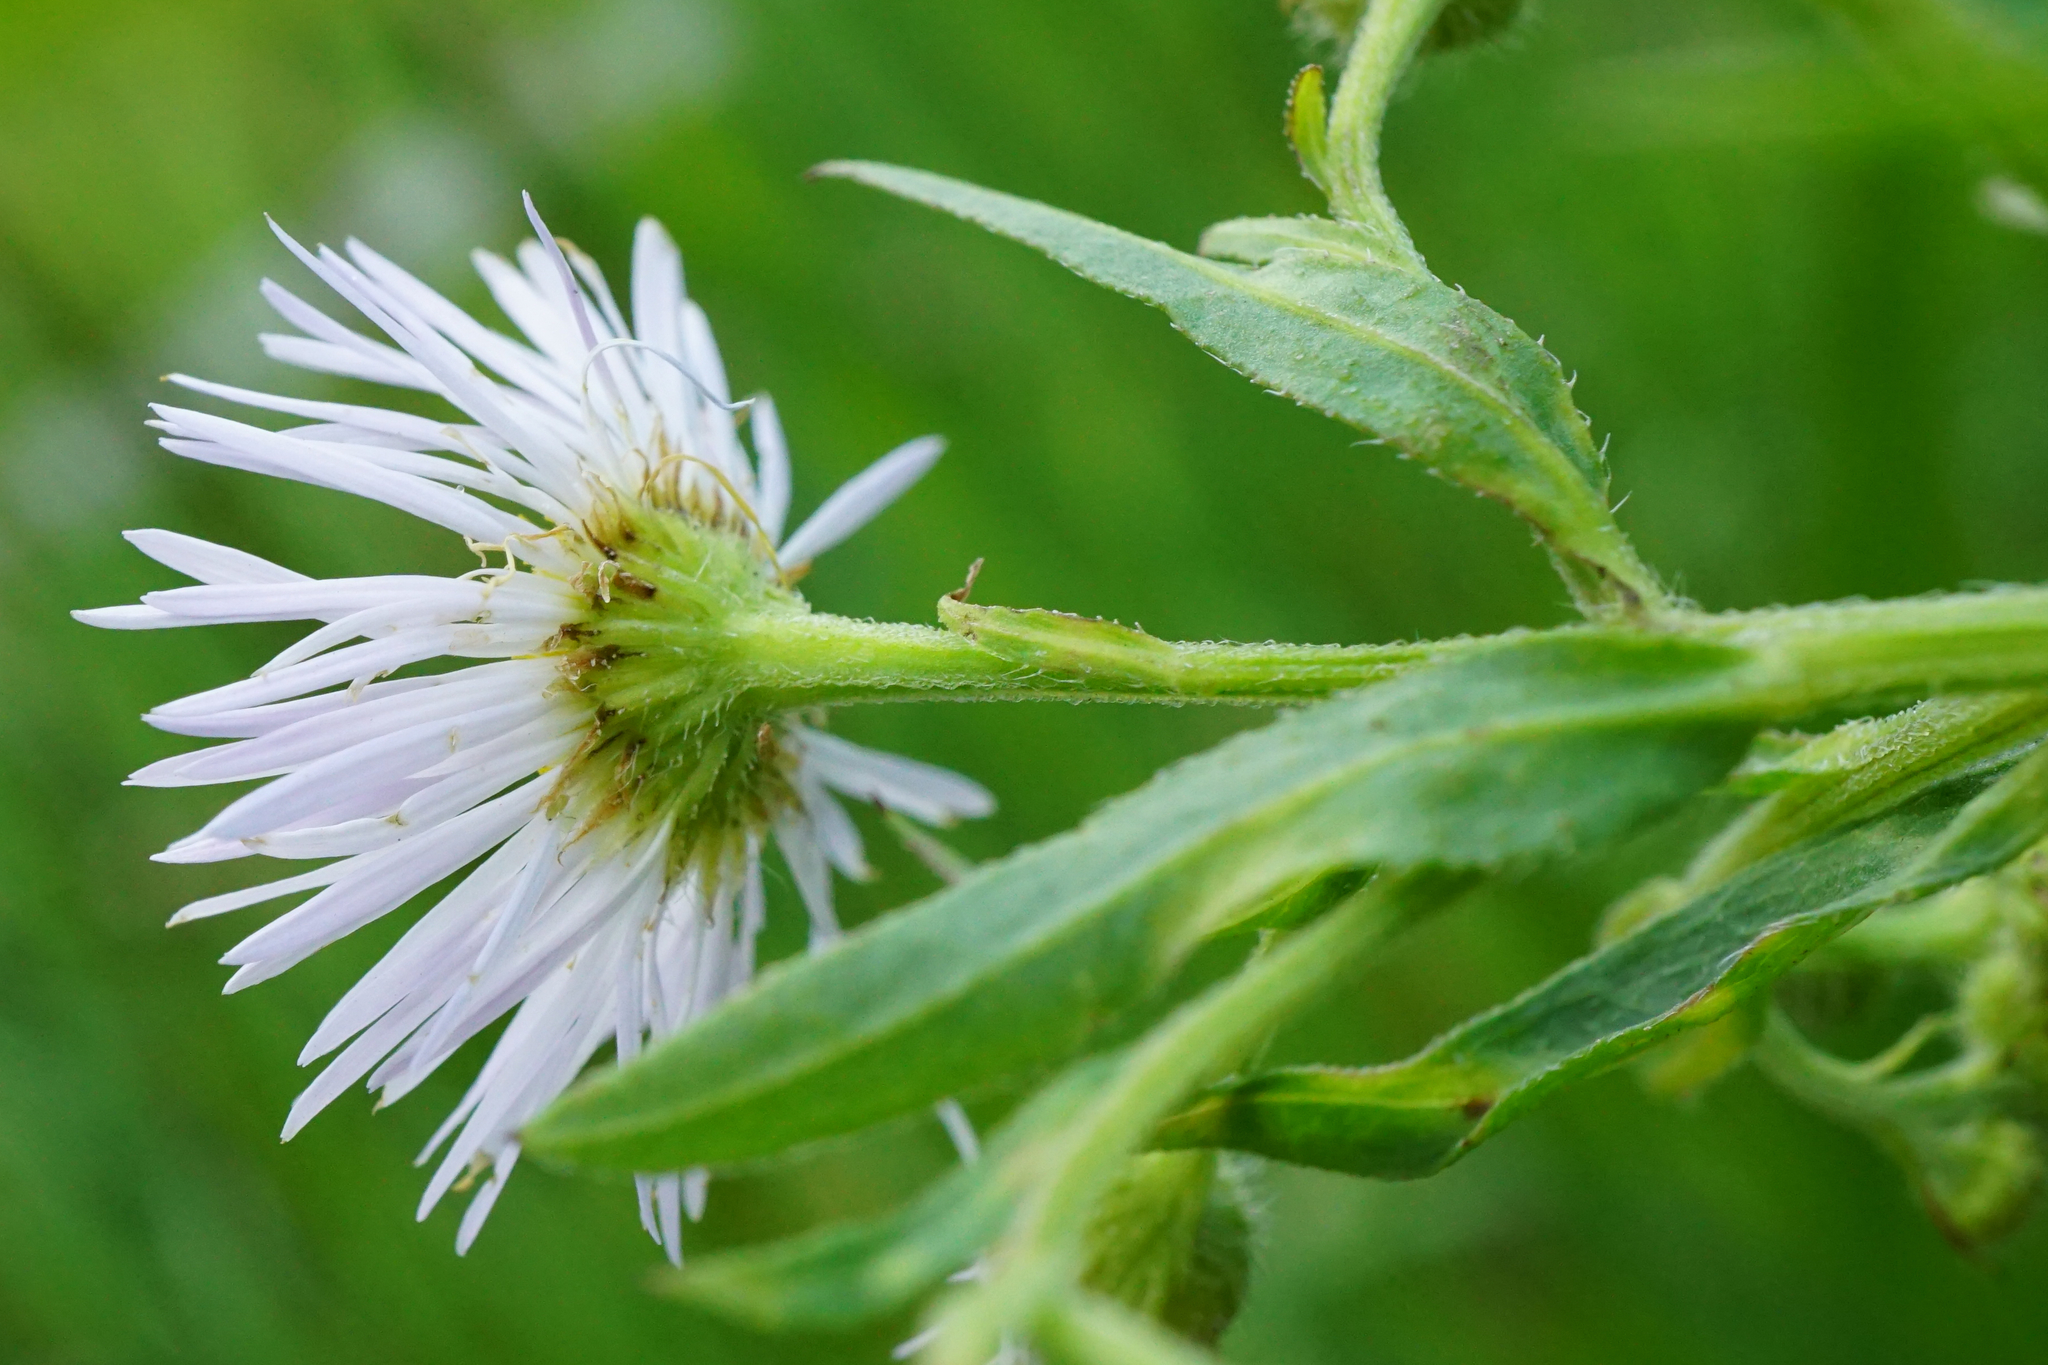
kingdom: Plantae
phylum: Tracheophyta
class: Magnoliopsida
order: Asterales
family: Asteraceae
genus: Erigeron
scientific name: Erigeron annuus
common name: Tall fleabane
